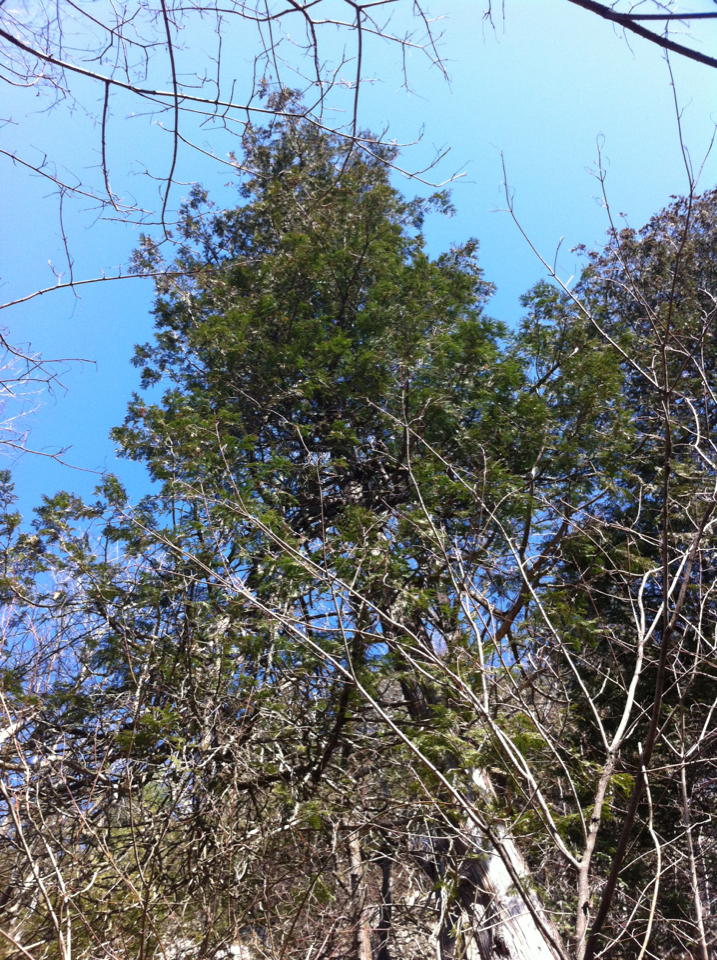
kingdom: Plantae
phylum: Tracheophyta
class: Pinopsida
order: Pinales
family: Cupressaceae
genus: Thuja
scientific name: Thuja occidentalis
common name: Northern white-cedar
